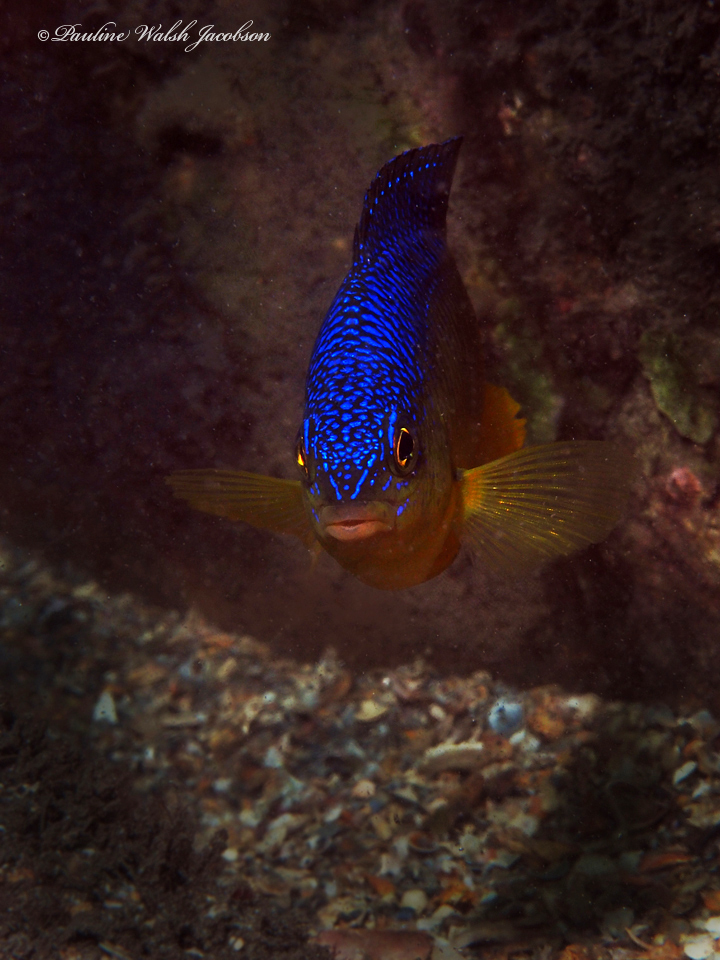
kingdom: Animalia
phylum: Chordata
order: Perciformes
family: Pomacentridae
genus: Stegastes
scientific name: Stegastes xanthurus
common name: Cocoa damselfish
